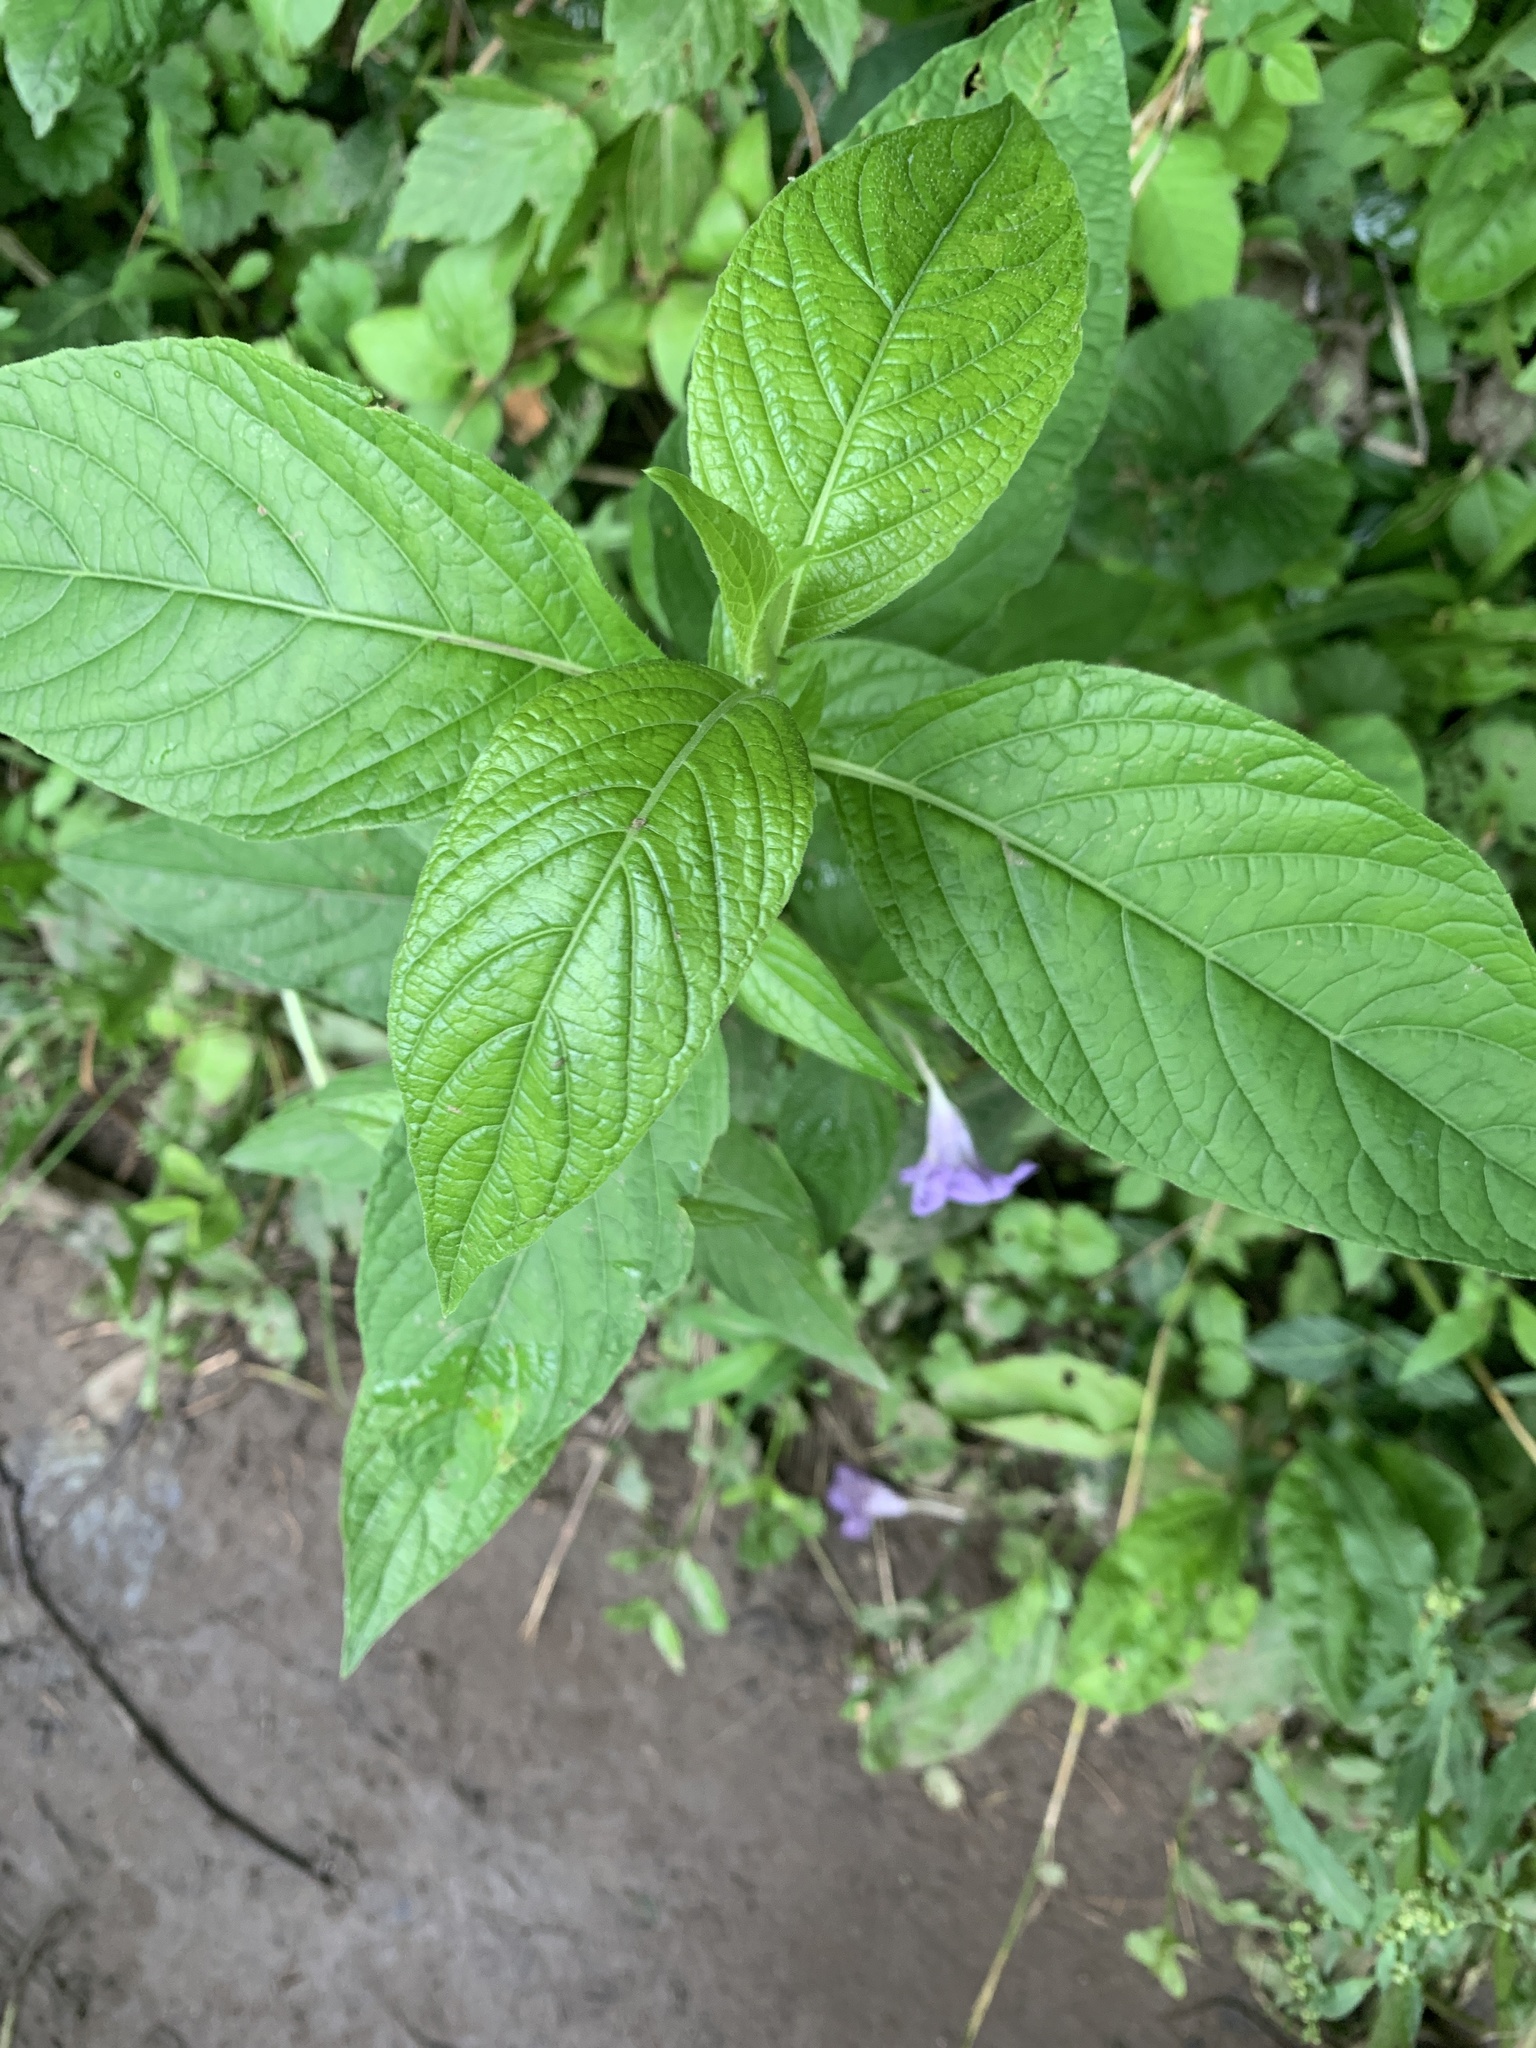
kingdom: Plantae
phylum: Tracheophyta
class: Magnoliopsida
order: Lamiales
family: Acanthaceae
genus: Ruellia
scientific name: Ruellia strepens
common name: Limestone wild petunia
